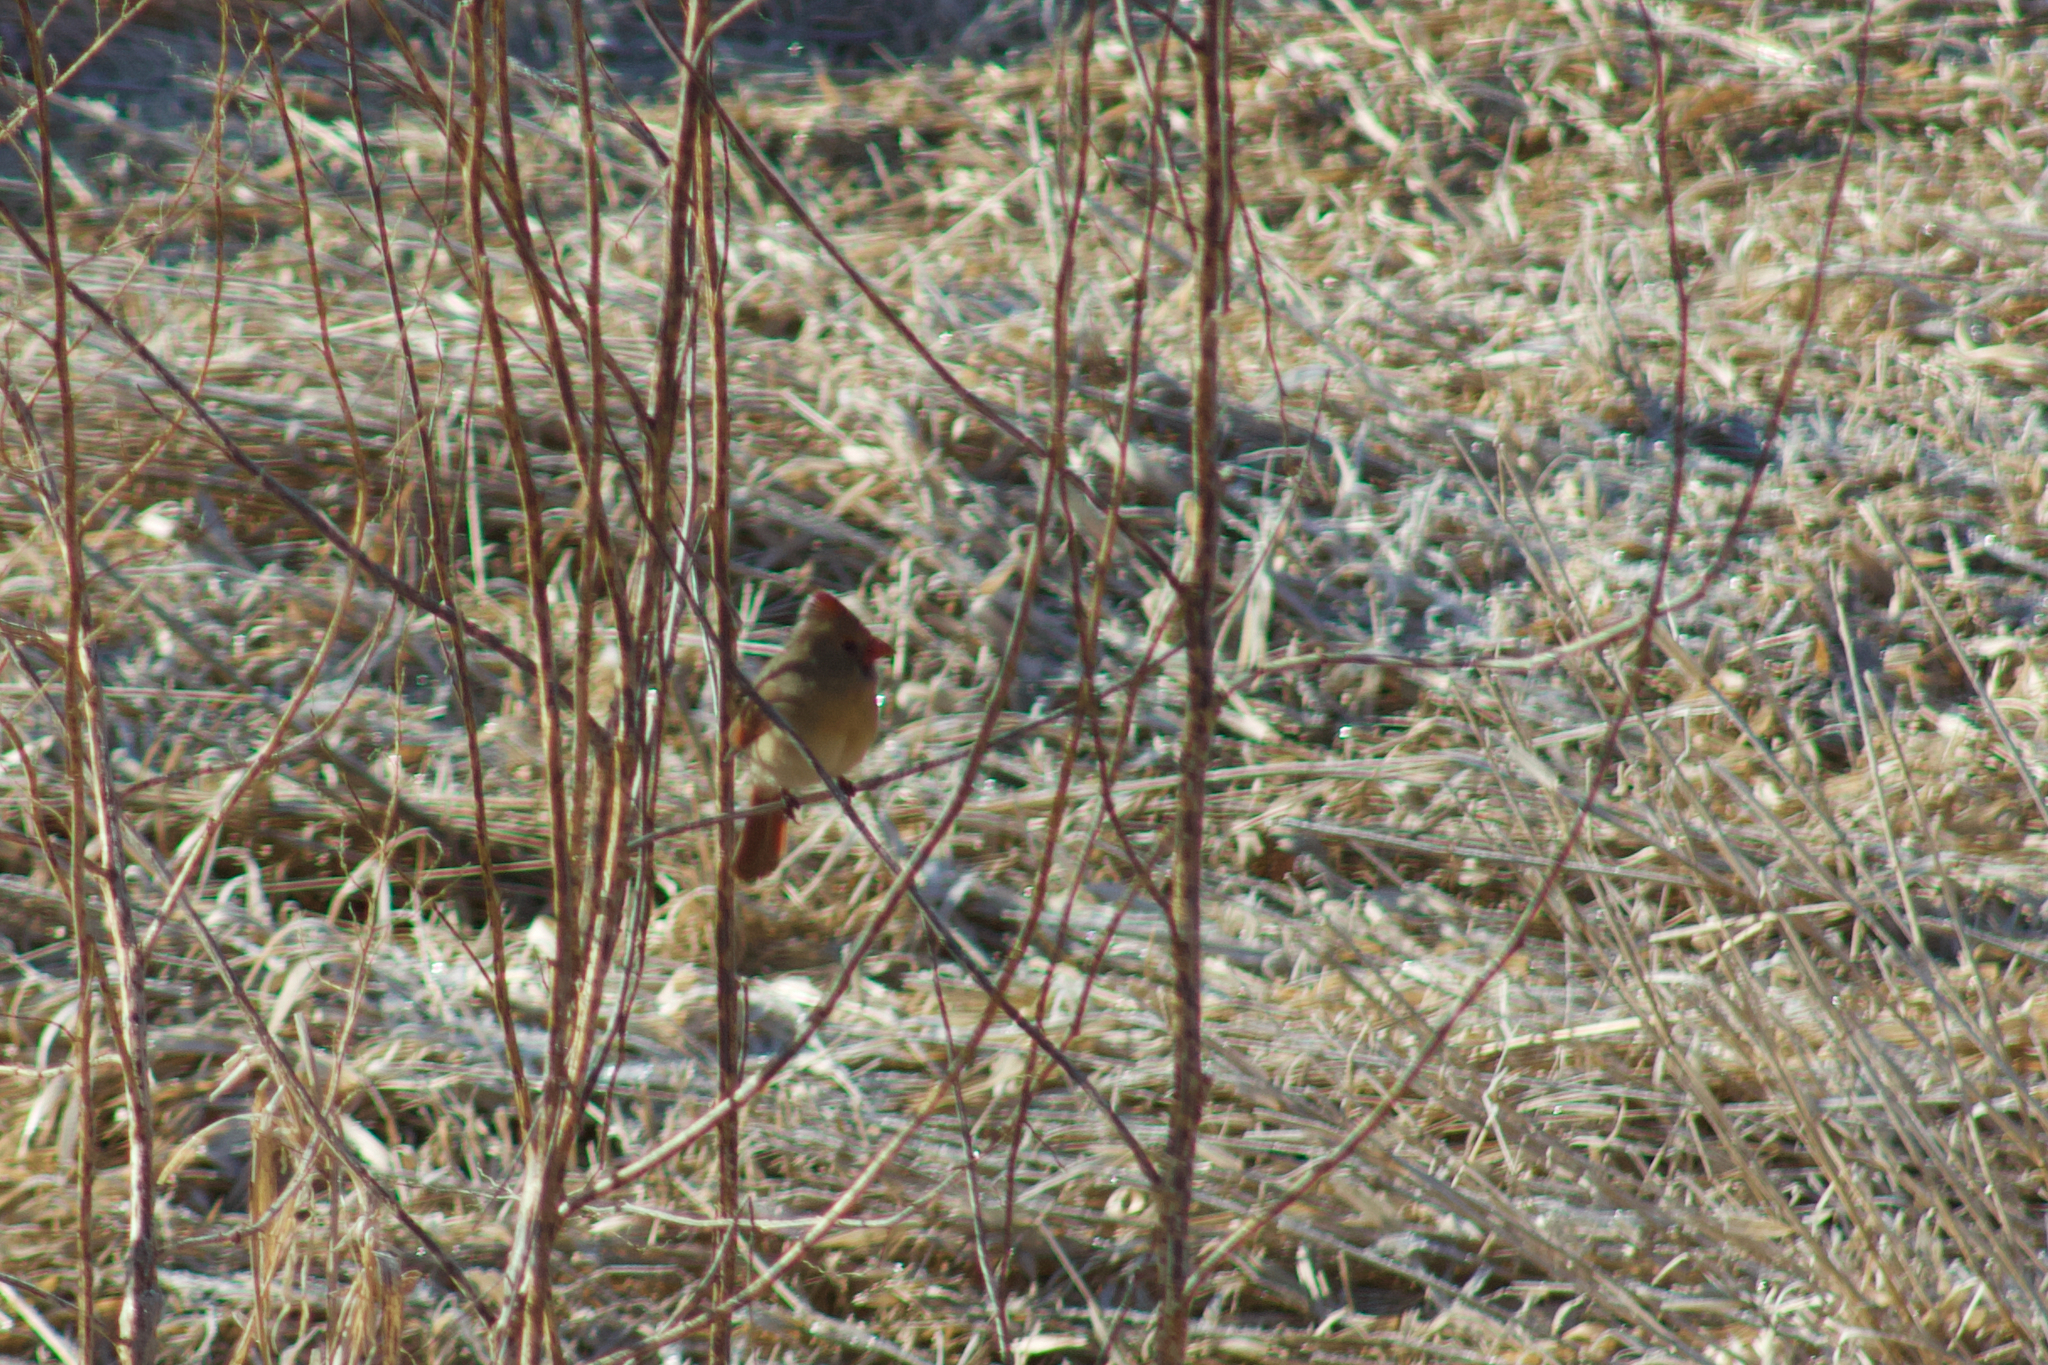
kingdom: Animalia
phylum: Chordata
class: Aves
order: Passeriformes
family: Cardinalidae
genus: Cardinalis
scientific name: Cardinalis cardinalis
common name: Northern cardinal
